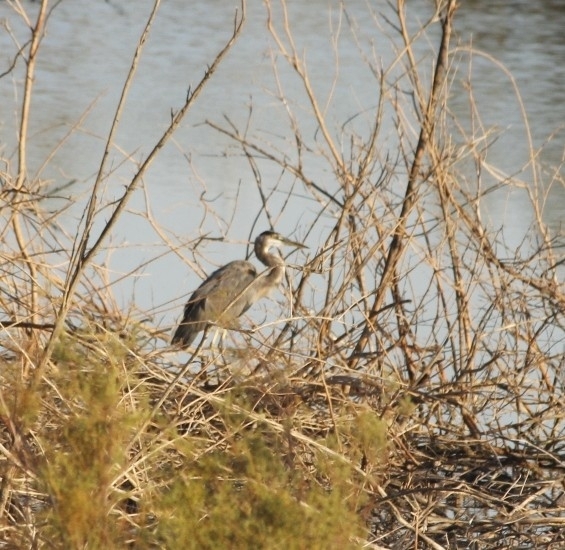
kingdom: Animalia
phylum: Chordata
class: Aves
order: Pelecaniformes
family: Ardeidae
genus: Ardea
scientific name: Ardea herodias
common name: Great blue heron
